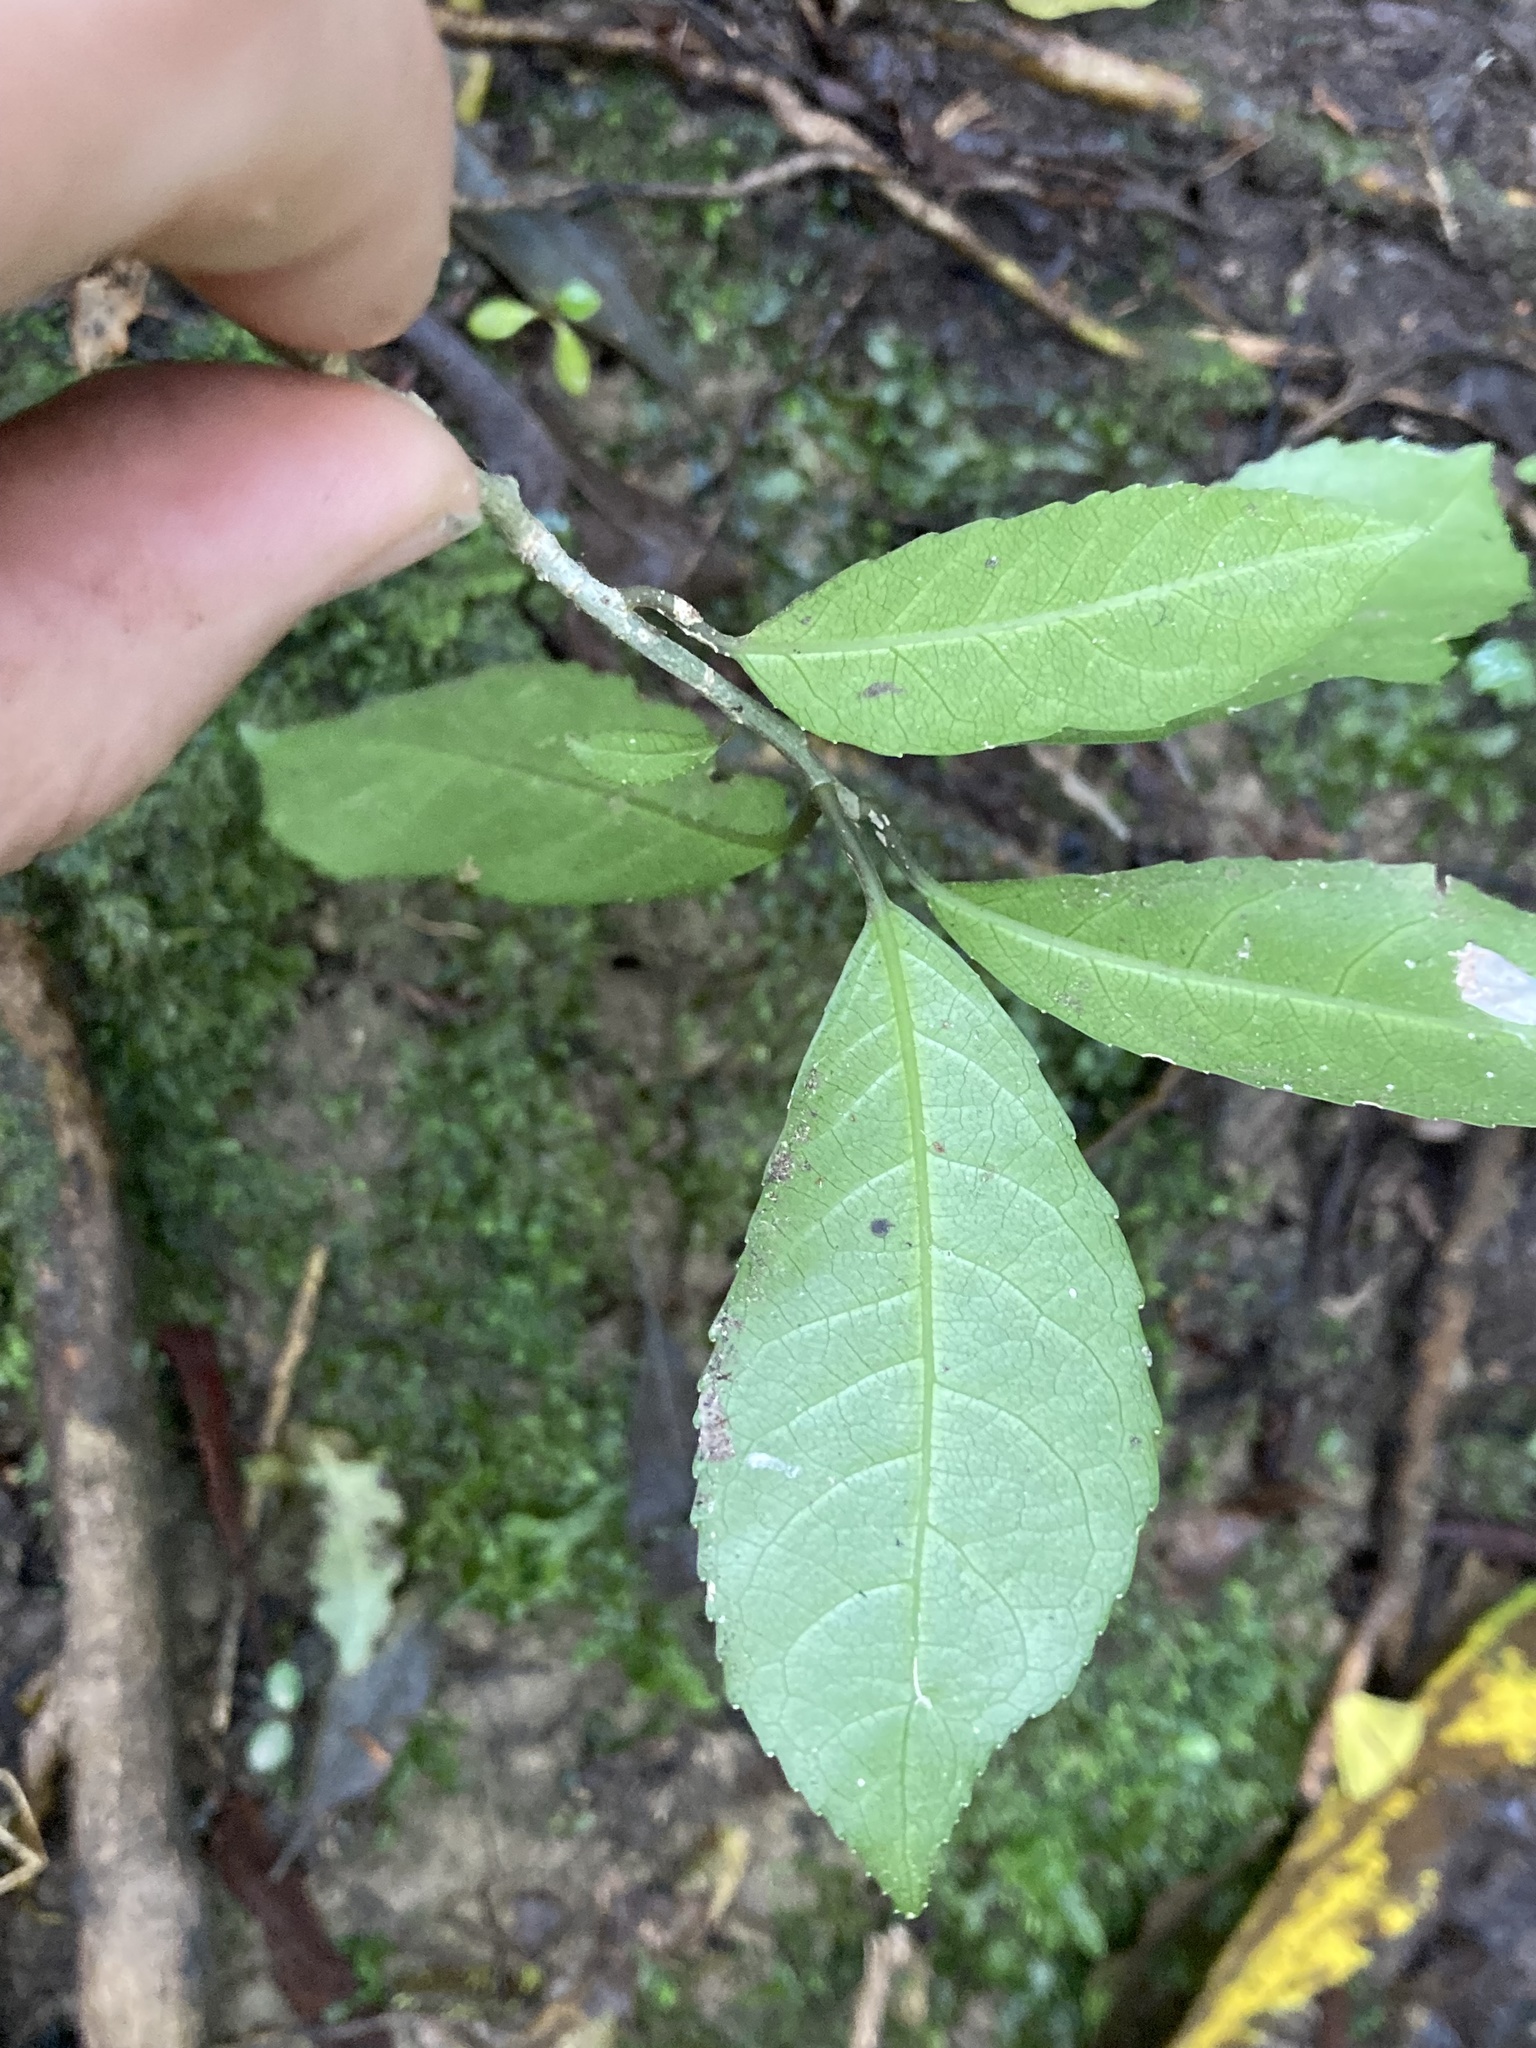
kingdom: Plantae
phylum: Tracheophyta
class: Magnoliopsida
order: Malpighiales
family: Violaceae
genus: Melicytus
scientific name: Melicytus ramiflorus
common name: Mahoe
